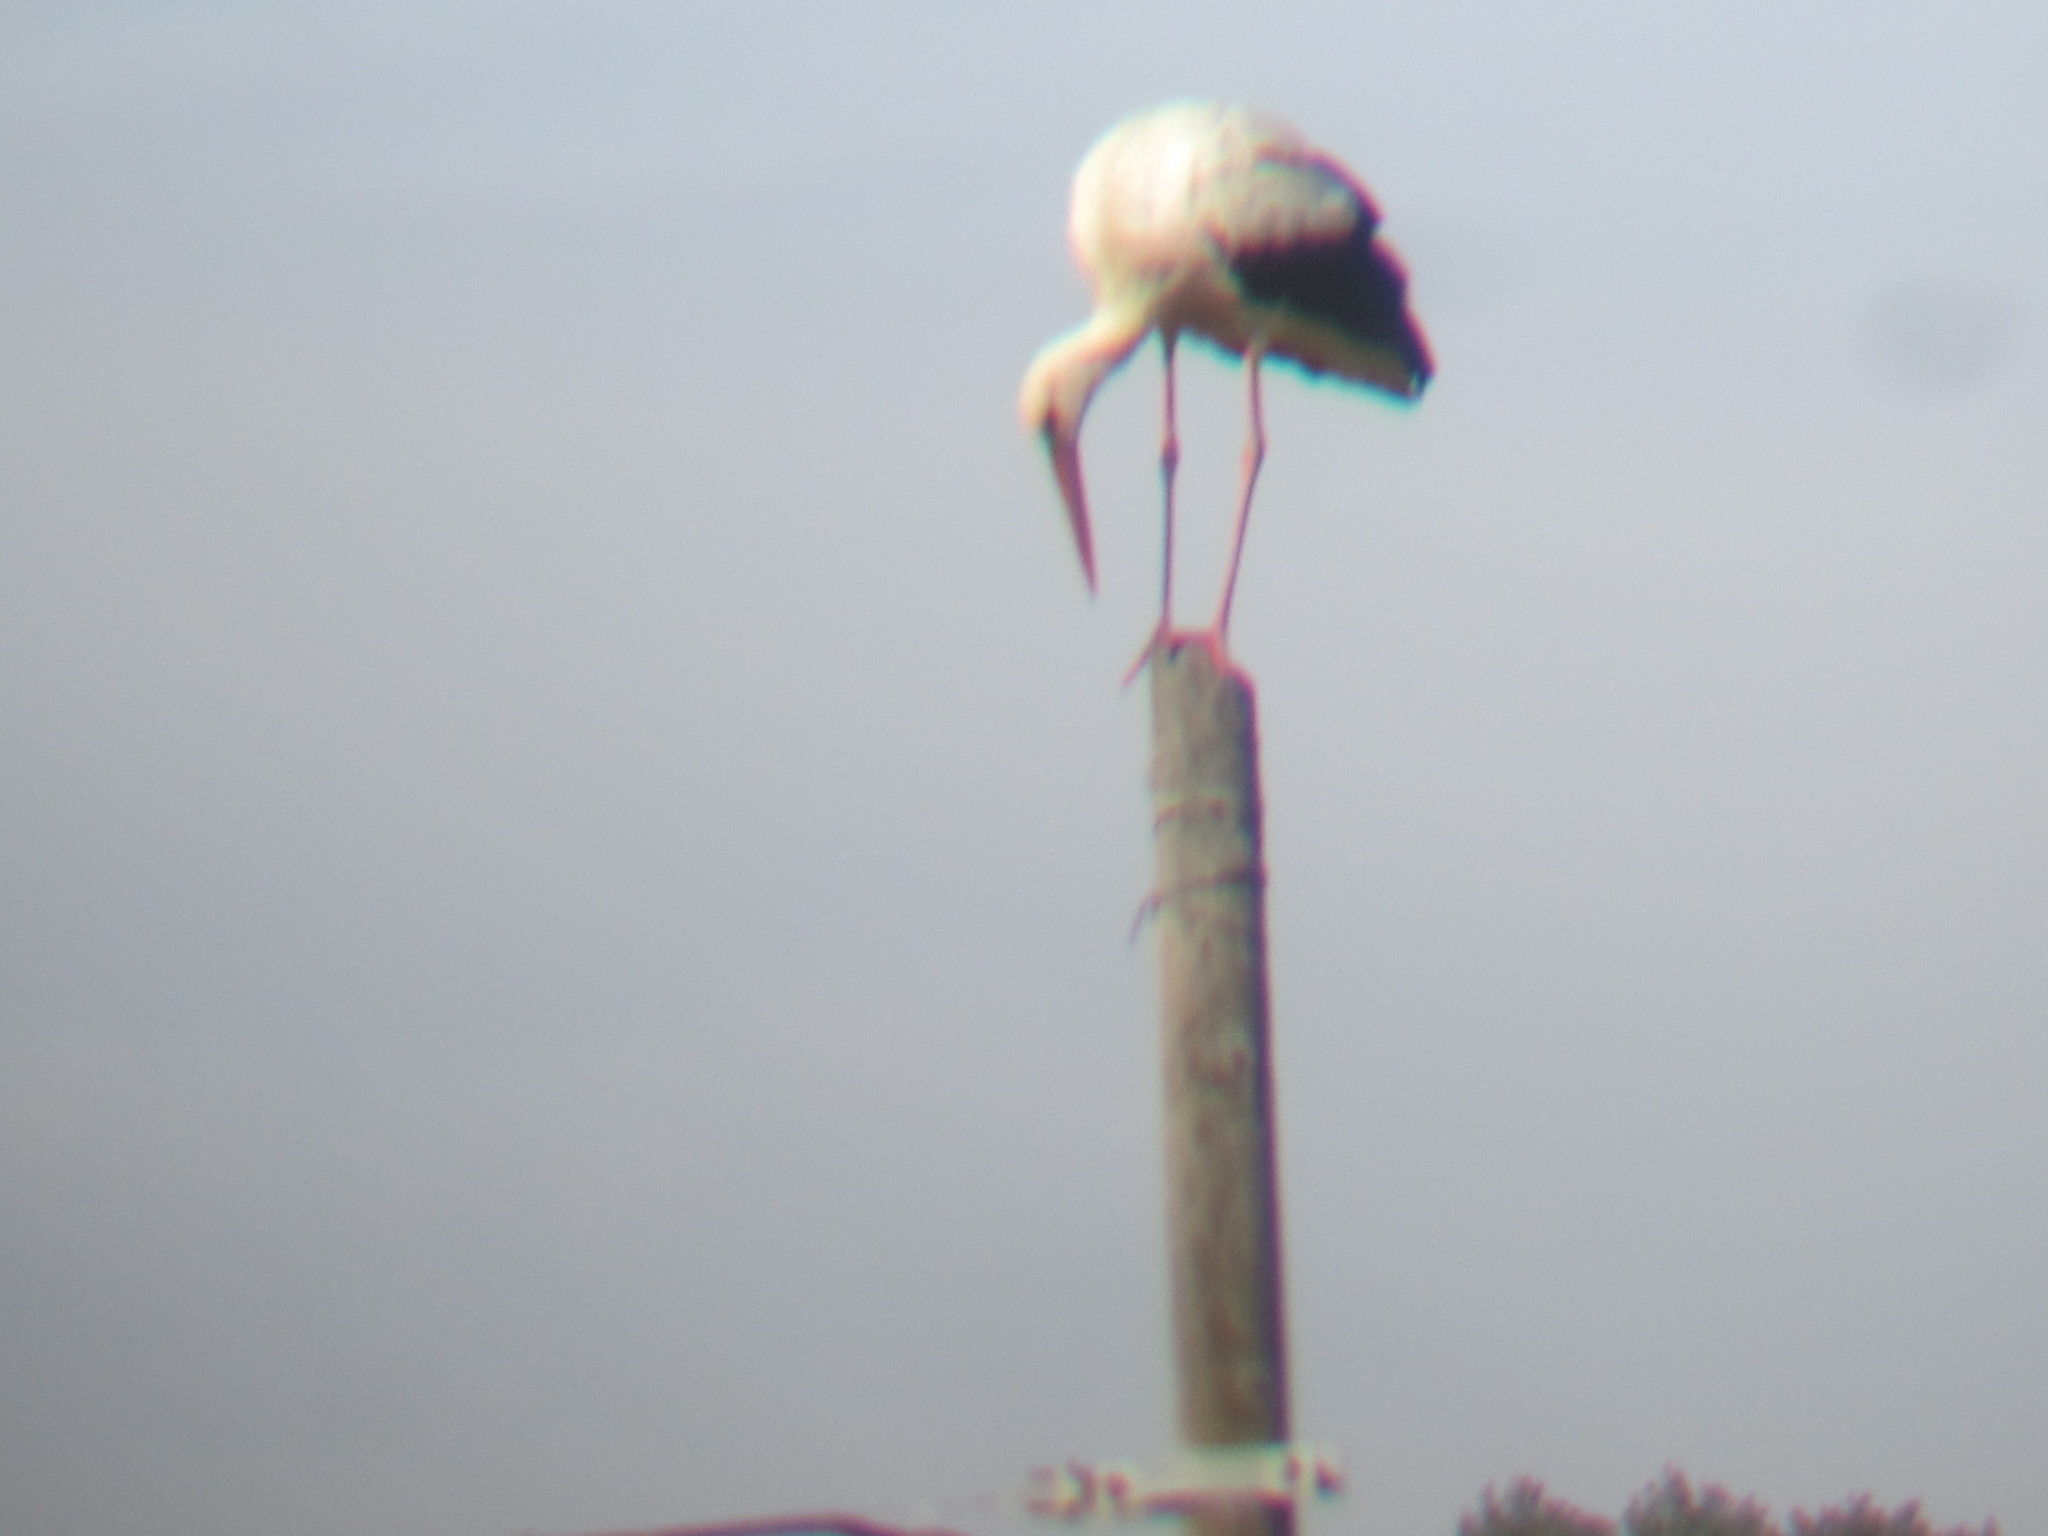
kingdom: Animalia
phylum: Chordata
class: Aves
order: Ciconiiformes
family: Ciconiidae
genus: Ciconia
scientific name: Ciconia ciconia
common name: White stork
